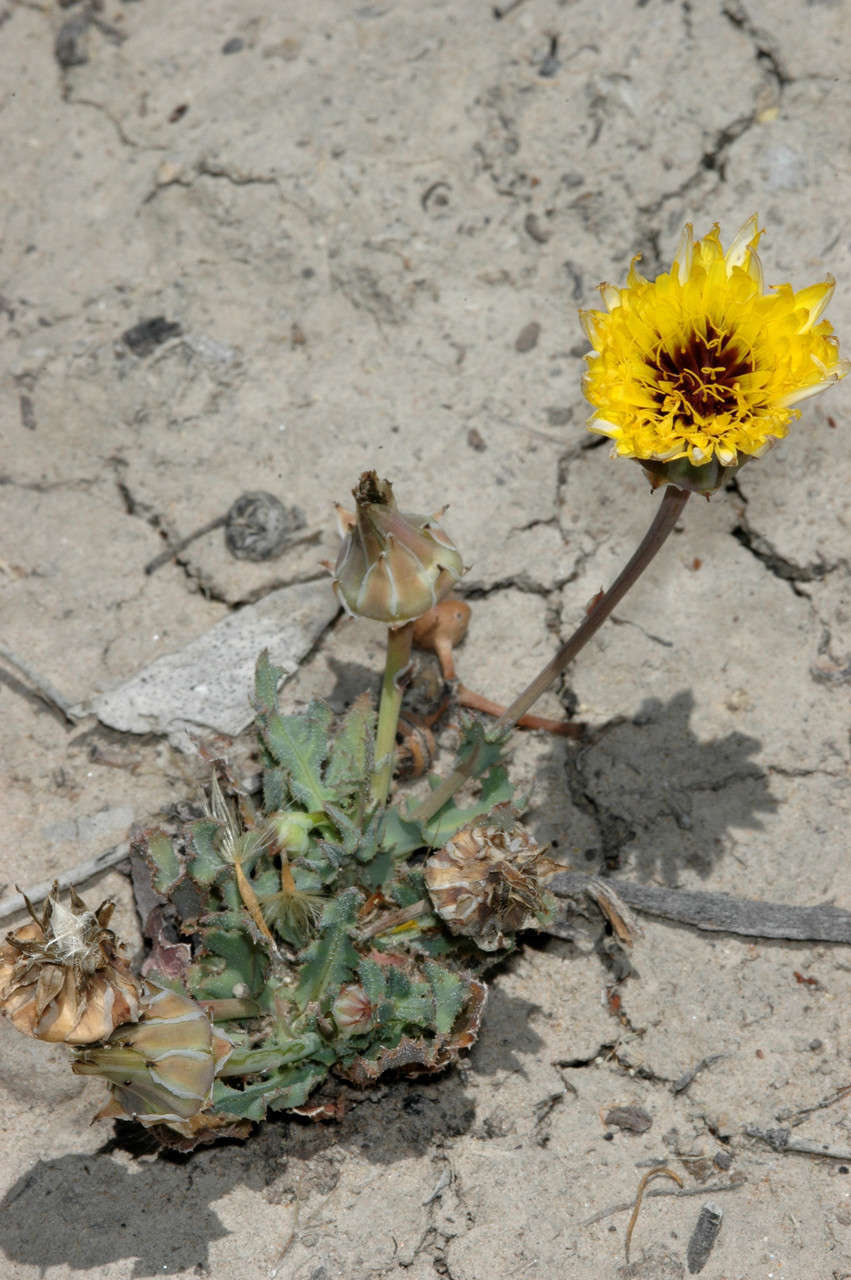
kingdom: Plantae
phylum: Tracheophyta
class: Magnoliopsida
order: Asterales
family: Asteraceae
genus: Reichardia
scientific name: Reichardia tingitana
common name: Reichardia
